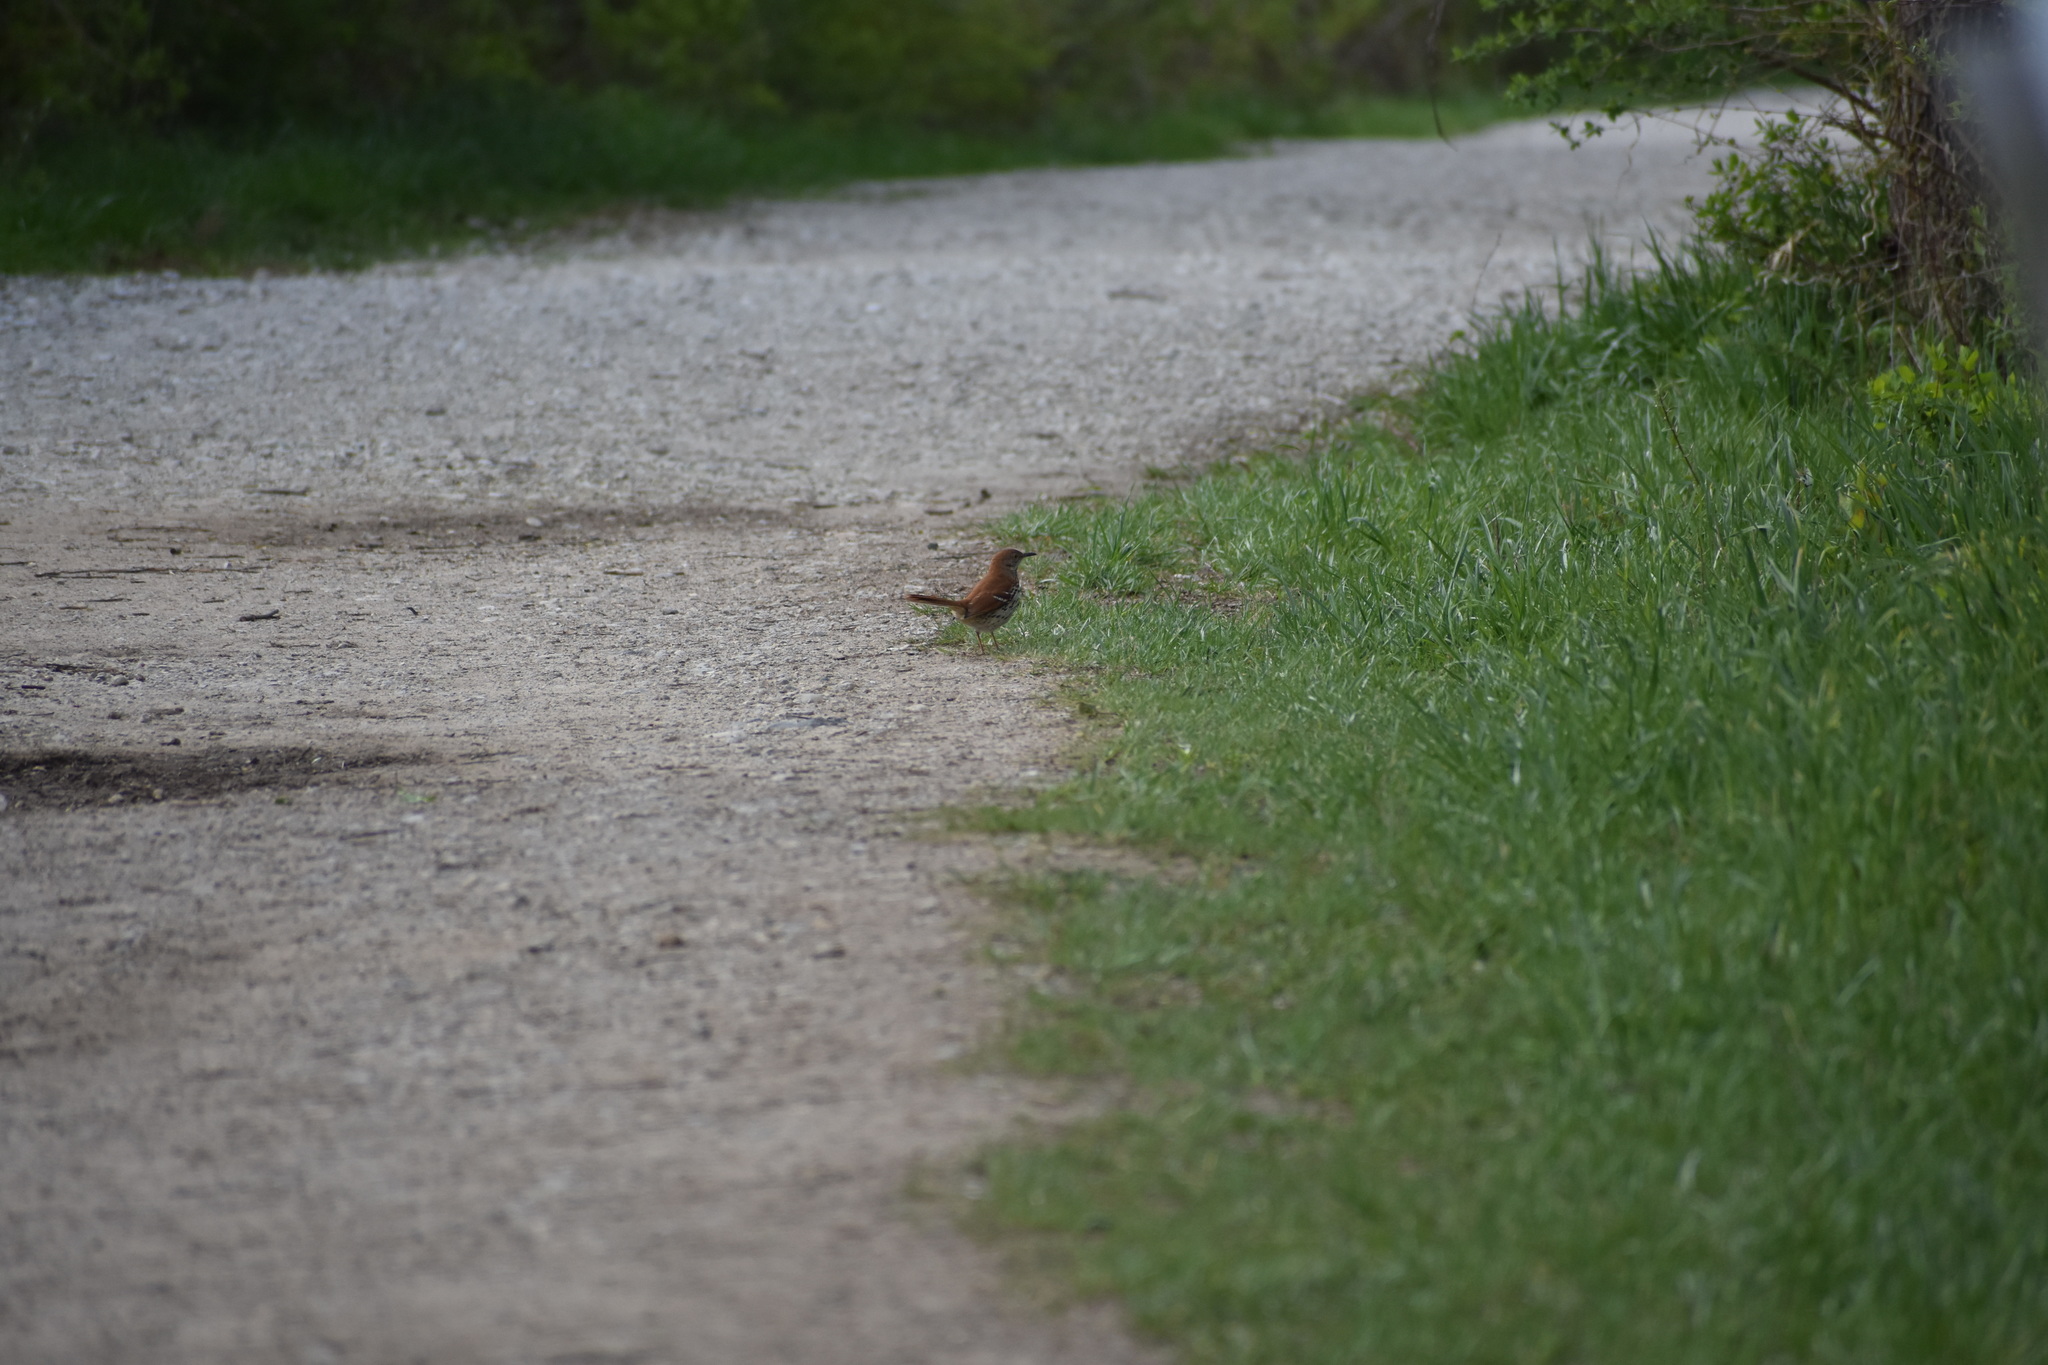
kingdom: Animalia
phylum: Chordata
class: Aves
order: Passeriformes
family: Mimidae
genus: Toxostoma
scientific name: Toxostoma rufum
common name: Brown thrasher
